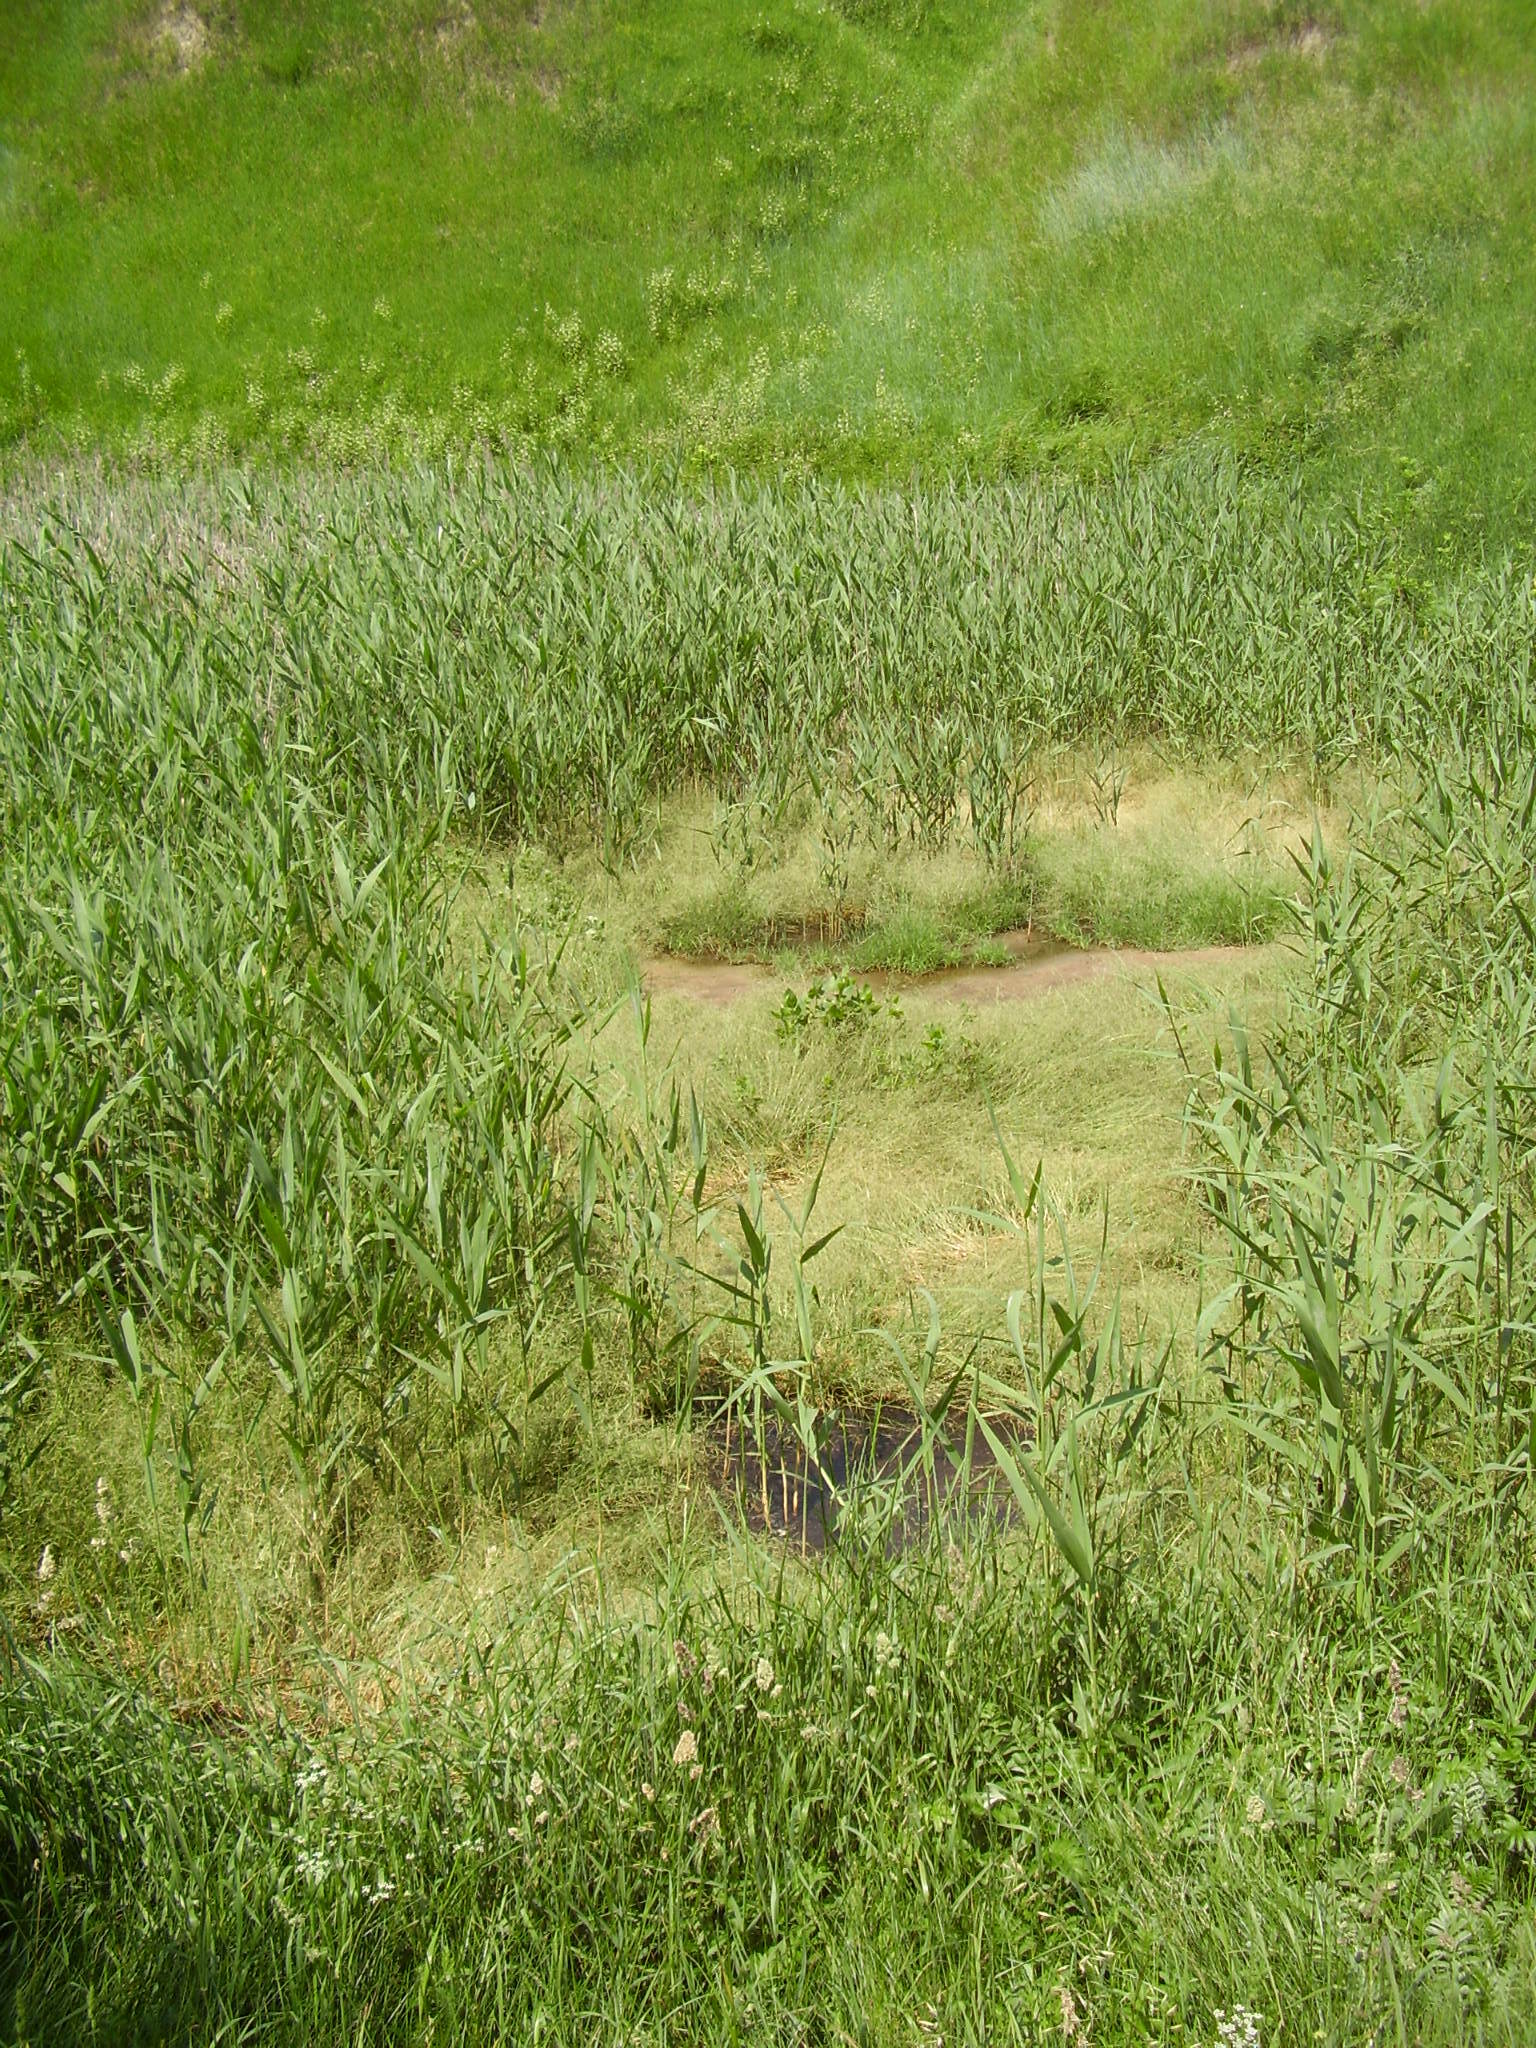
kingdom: Plantae
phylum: Tracheophyta
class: Liliopsida
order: Poales
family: Poaceae
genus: Phragmites
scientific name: Phragmites australis
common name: Common reed
